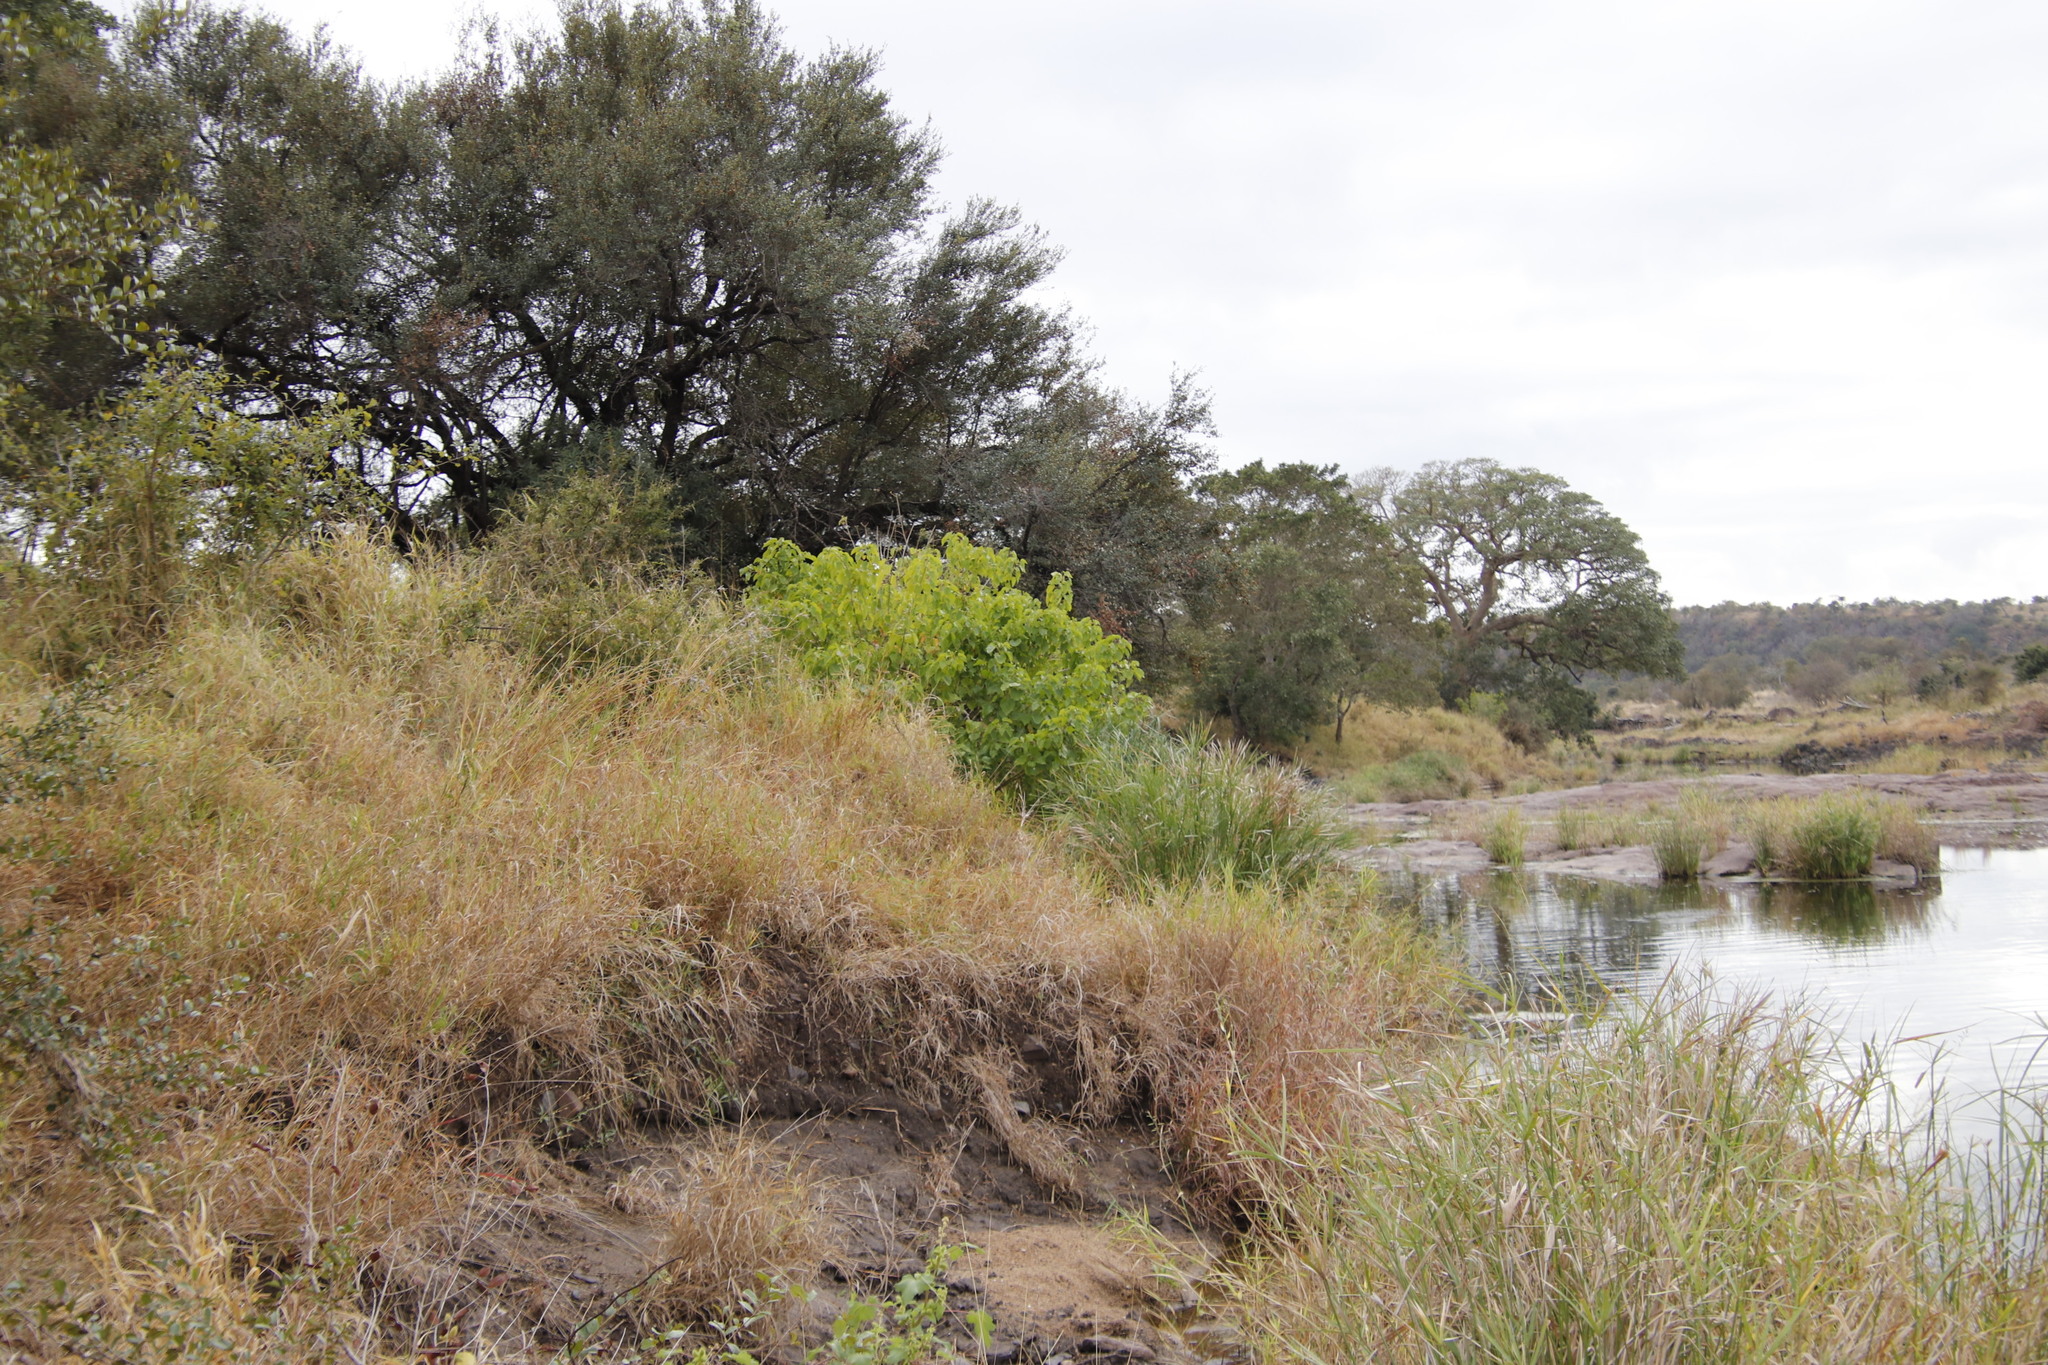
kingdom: Plantae
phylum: Tracheophyta
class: Magnoliopsida
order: Malpighiales
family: Euphorbiaceae
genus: Croton
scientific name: Croton megalobotrys
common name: Large fever berry
